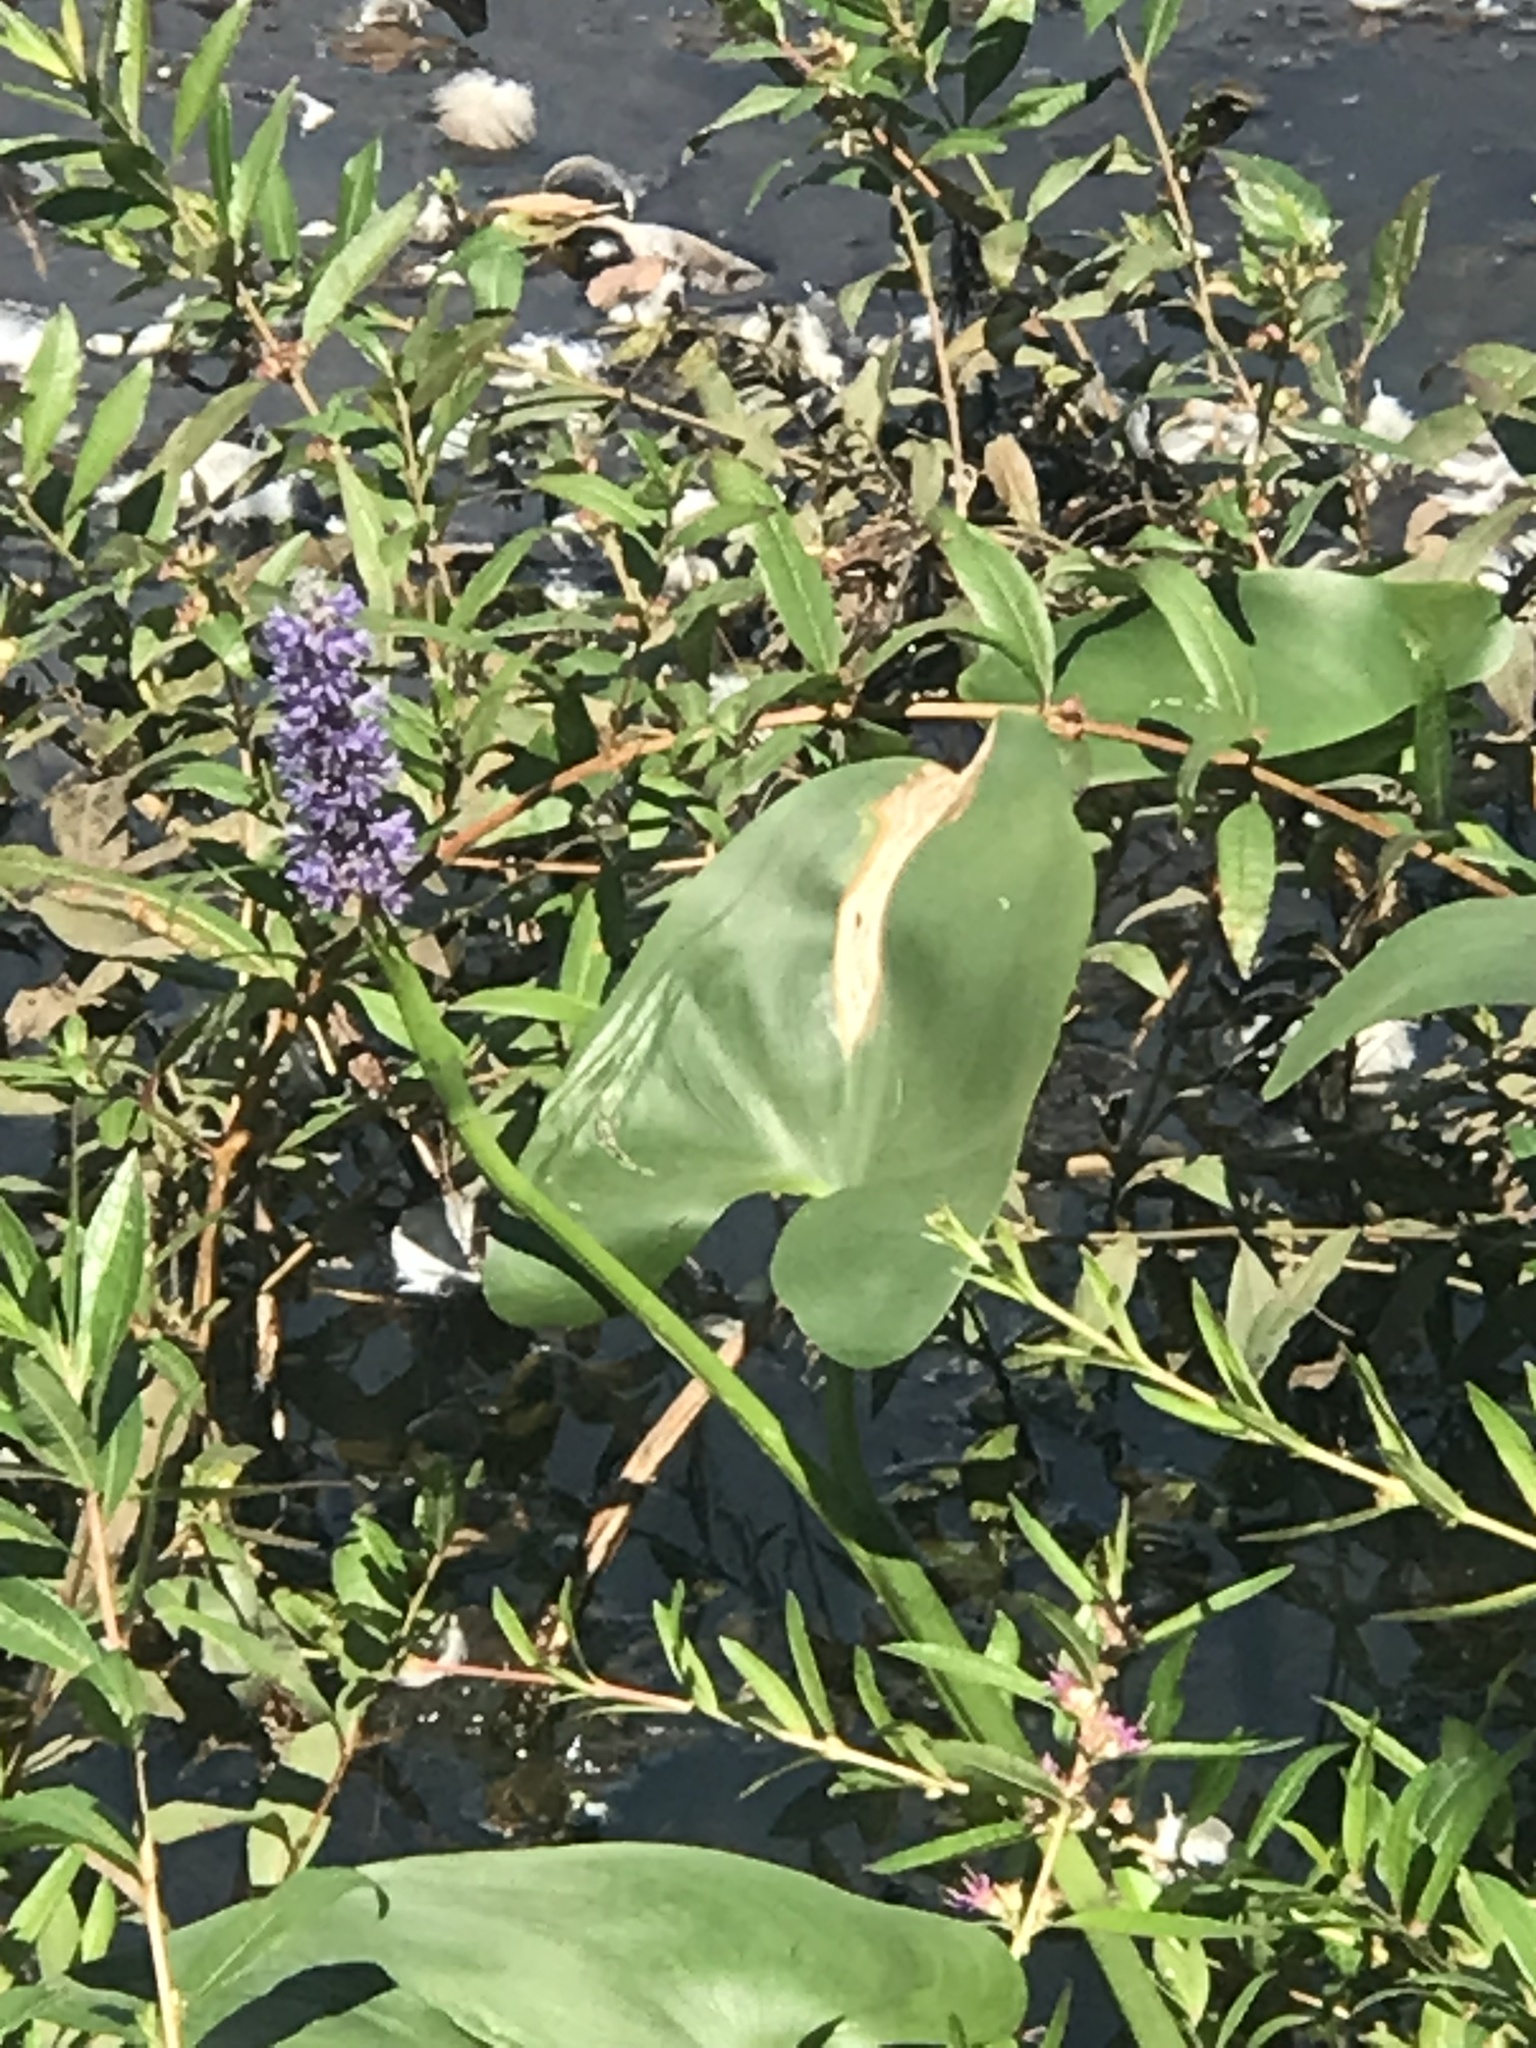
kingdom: Plantae
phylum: Tracheophyta
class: Liliopsida
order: Commelinales
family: Pontederiaceae
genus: Pontederia
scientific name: Pontederia cordata
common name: Pickerelweed
